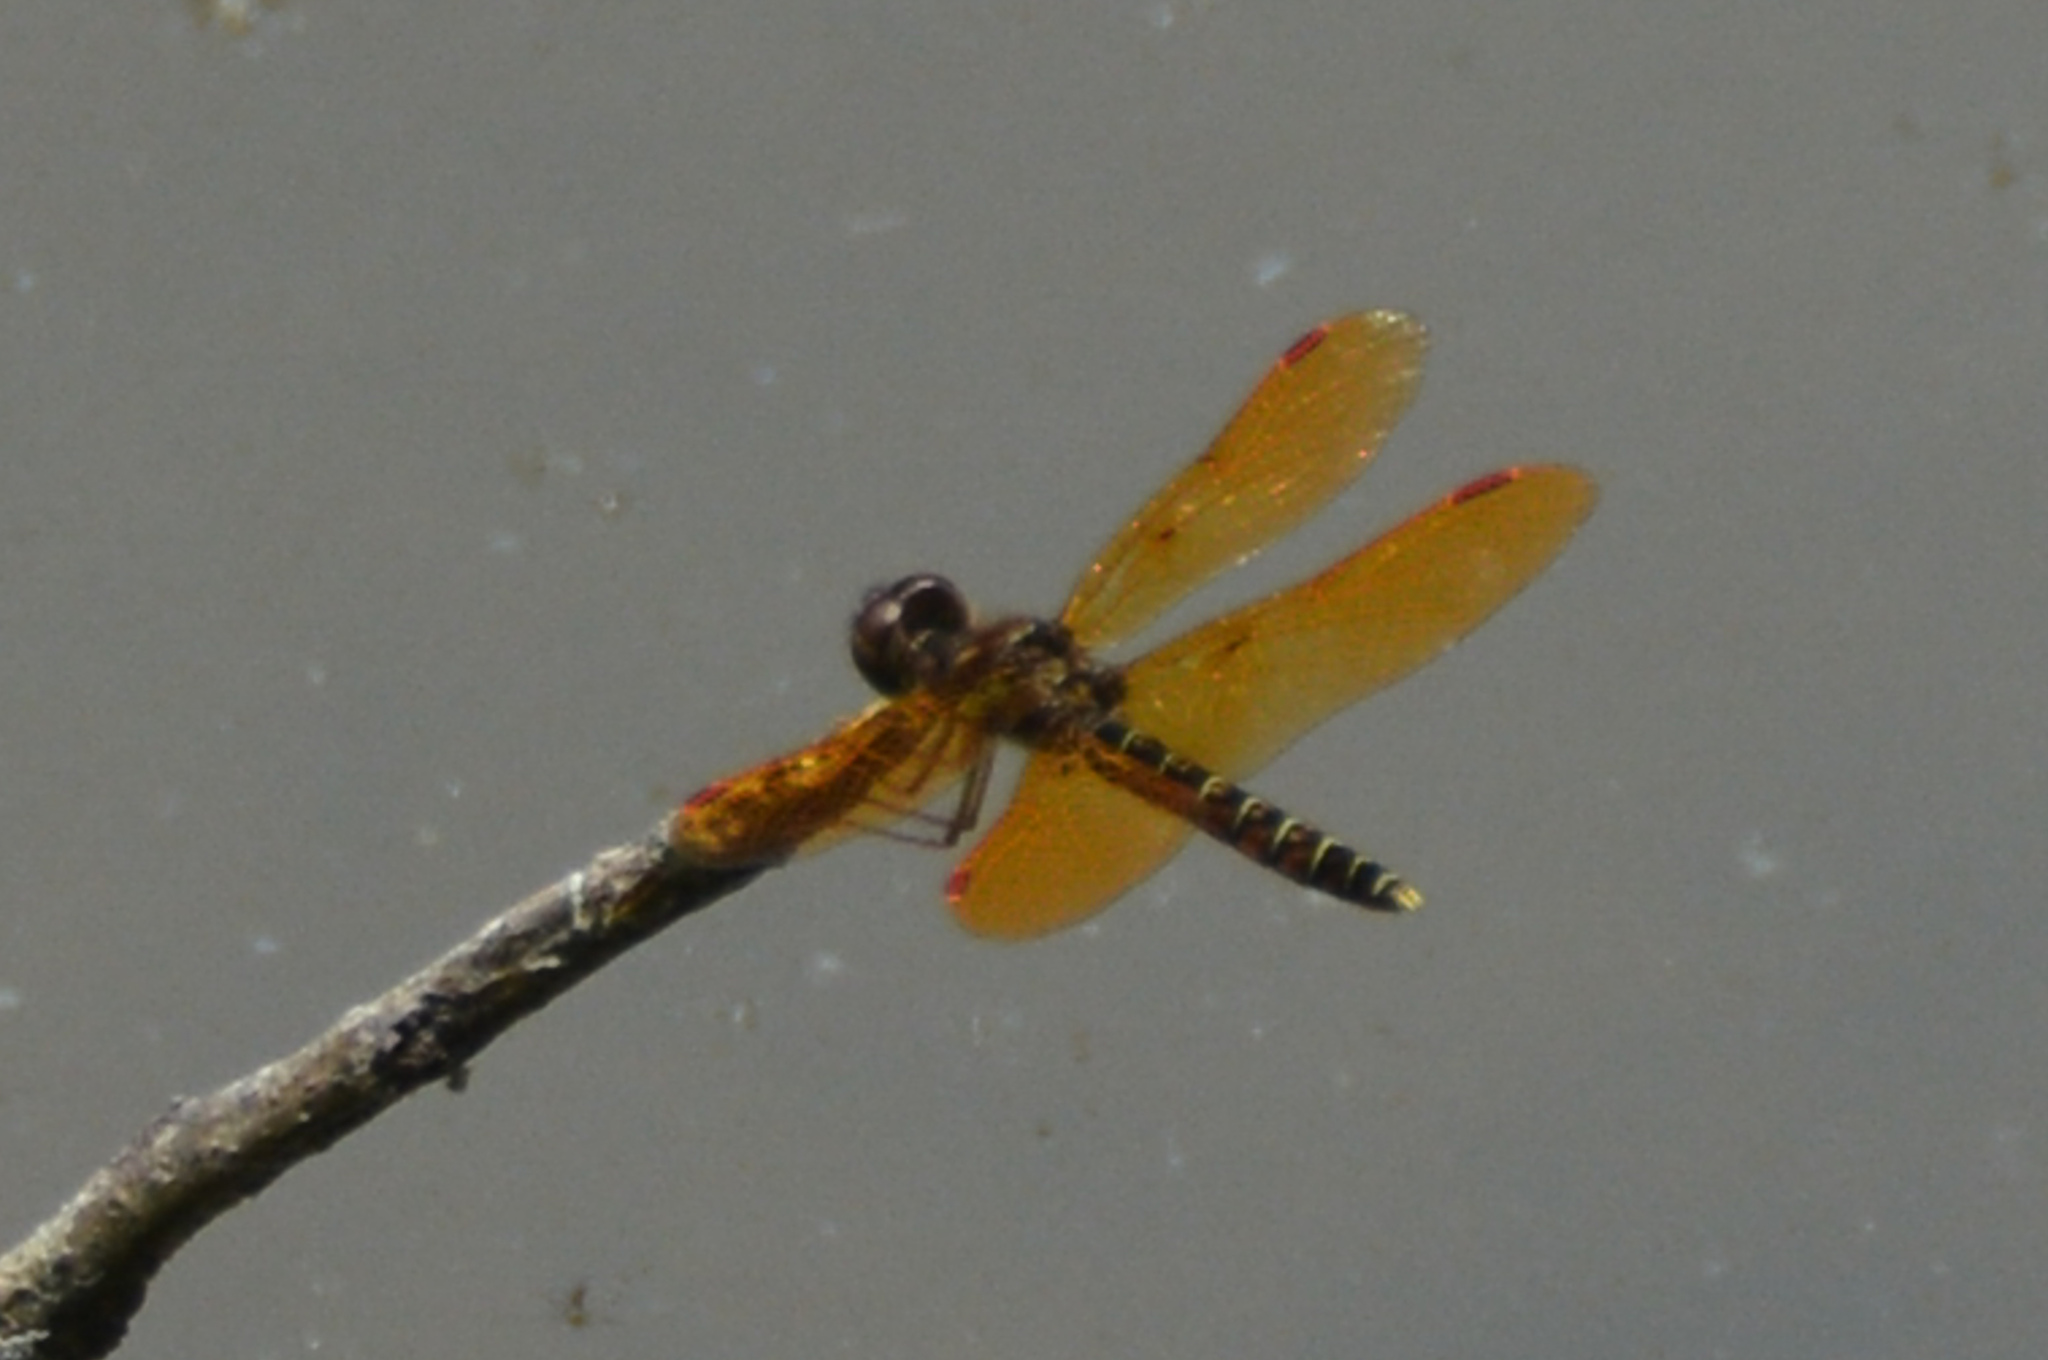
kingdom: Animalia
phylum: Arthropoda
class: Insecta
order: Odonata
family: Libellulidae
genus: Perithemis
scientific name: Perithemis tenera
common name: Eastern amberwing
